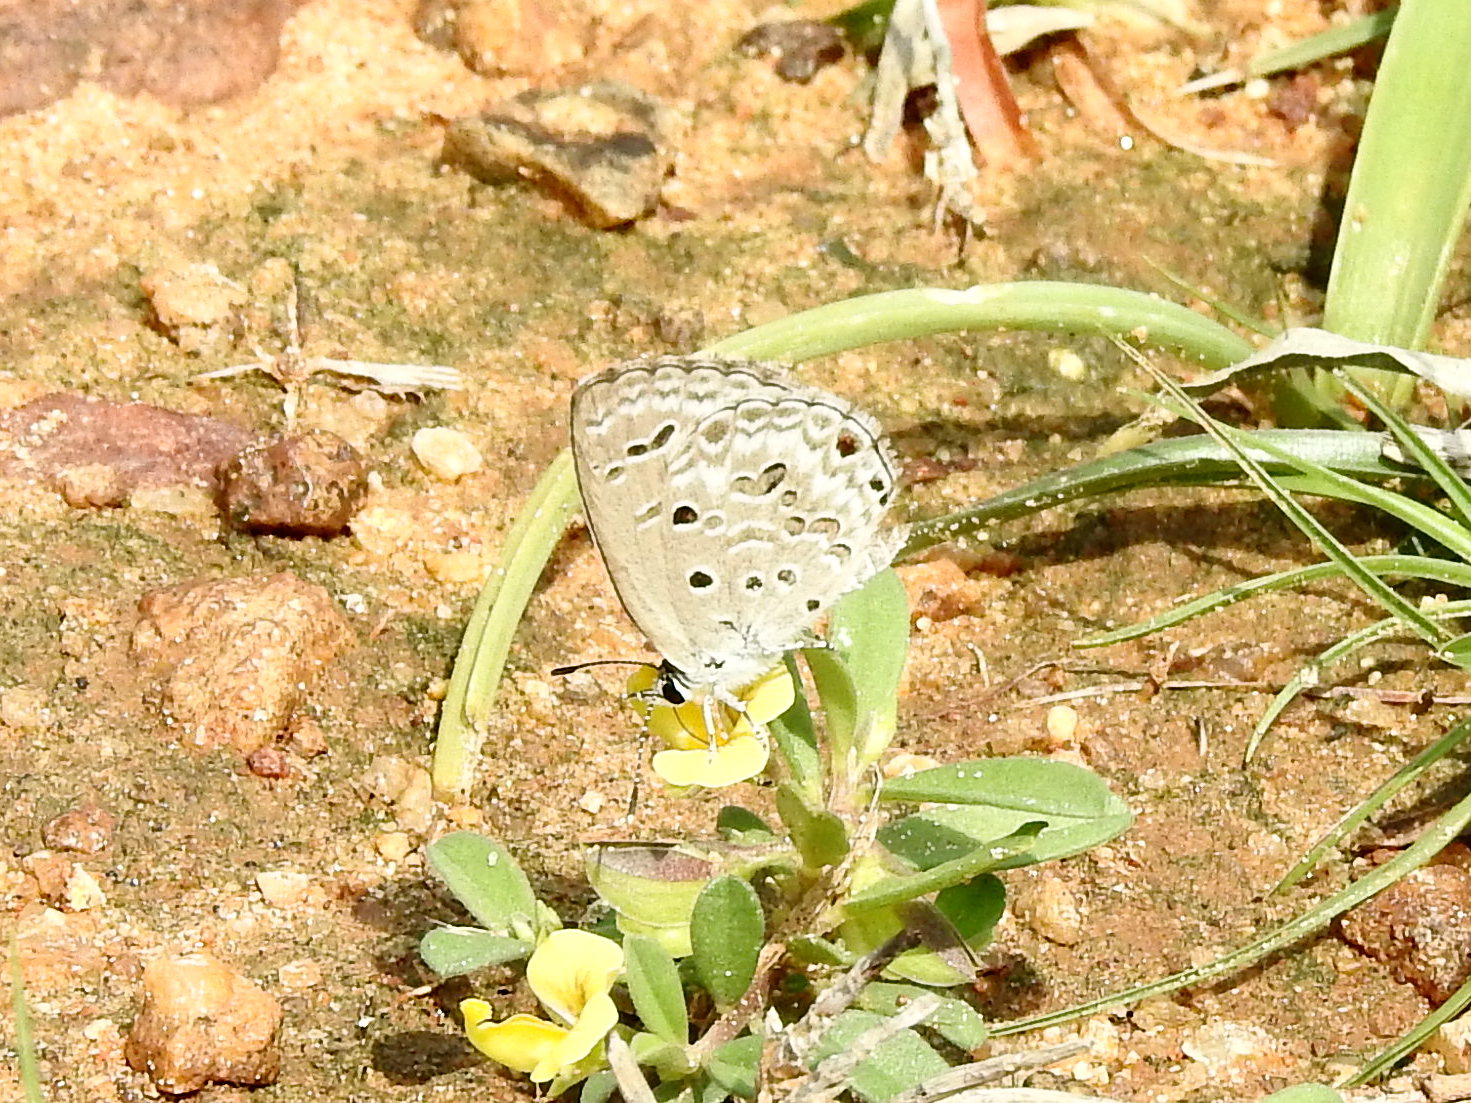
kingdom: Animalia
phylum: Arthropoda
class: Insecta
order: Lepidoptera
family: Lycaenidae
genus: Chilades
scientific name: Chilades laius
